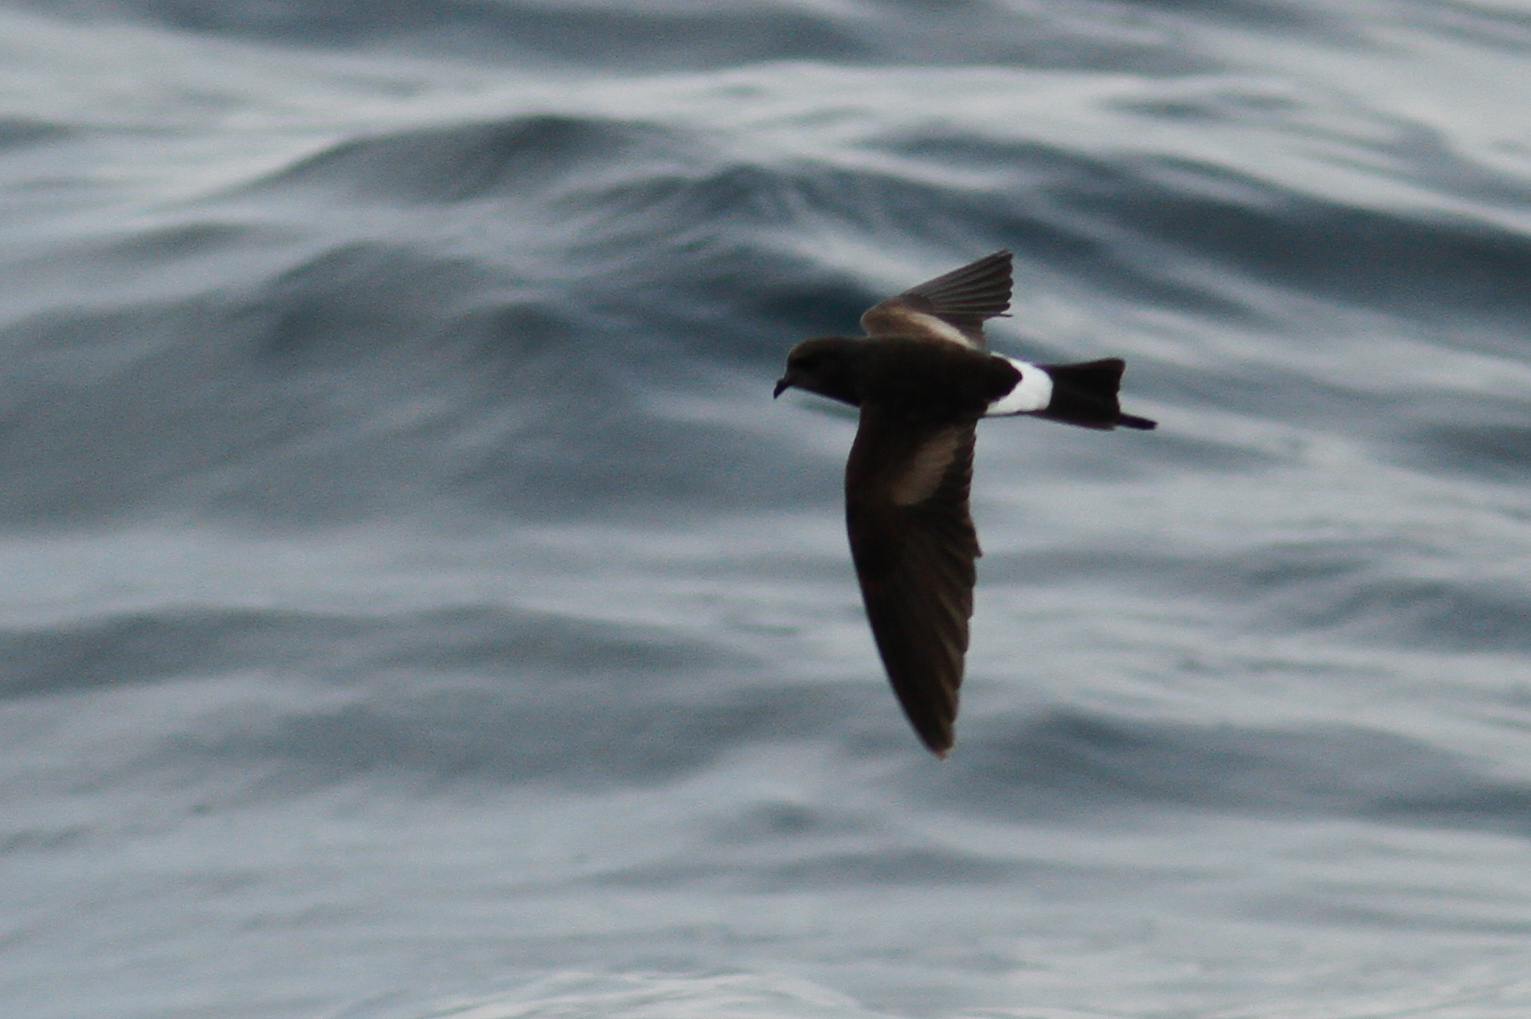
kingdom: Animalia
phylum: Chordata
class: Aves
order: Procellariiformes
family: Hydrobatidae
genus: Oceanites
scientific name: Oceanites oceanicus
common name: Wilson's storm petrel
